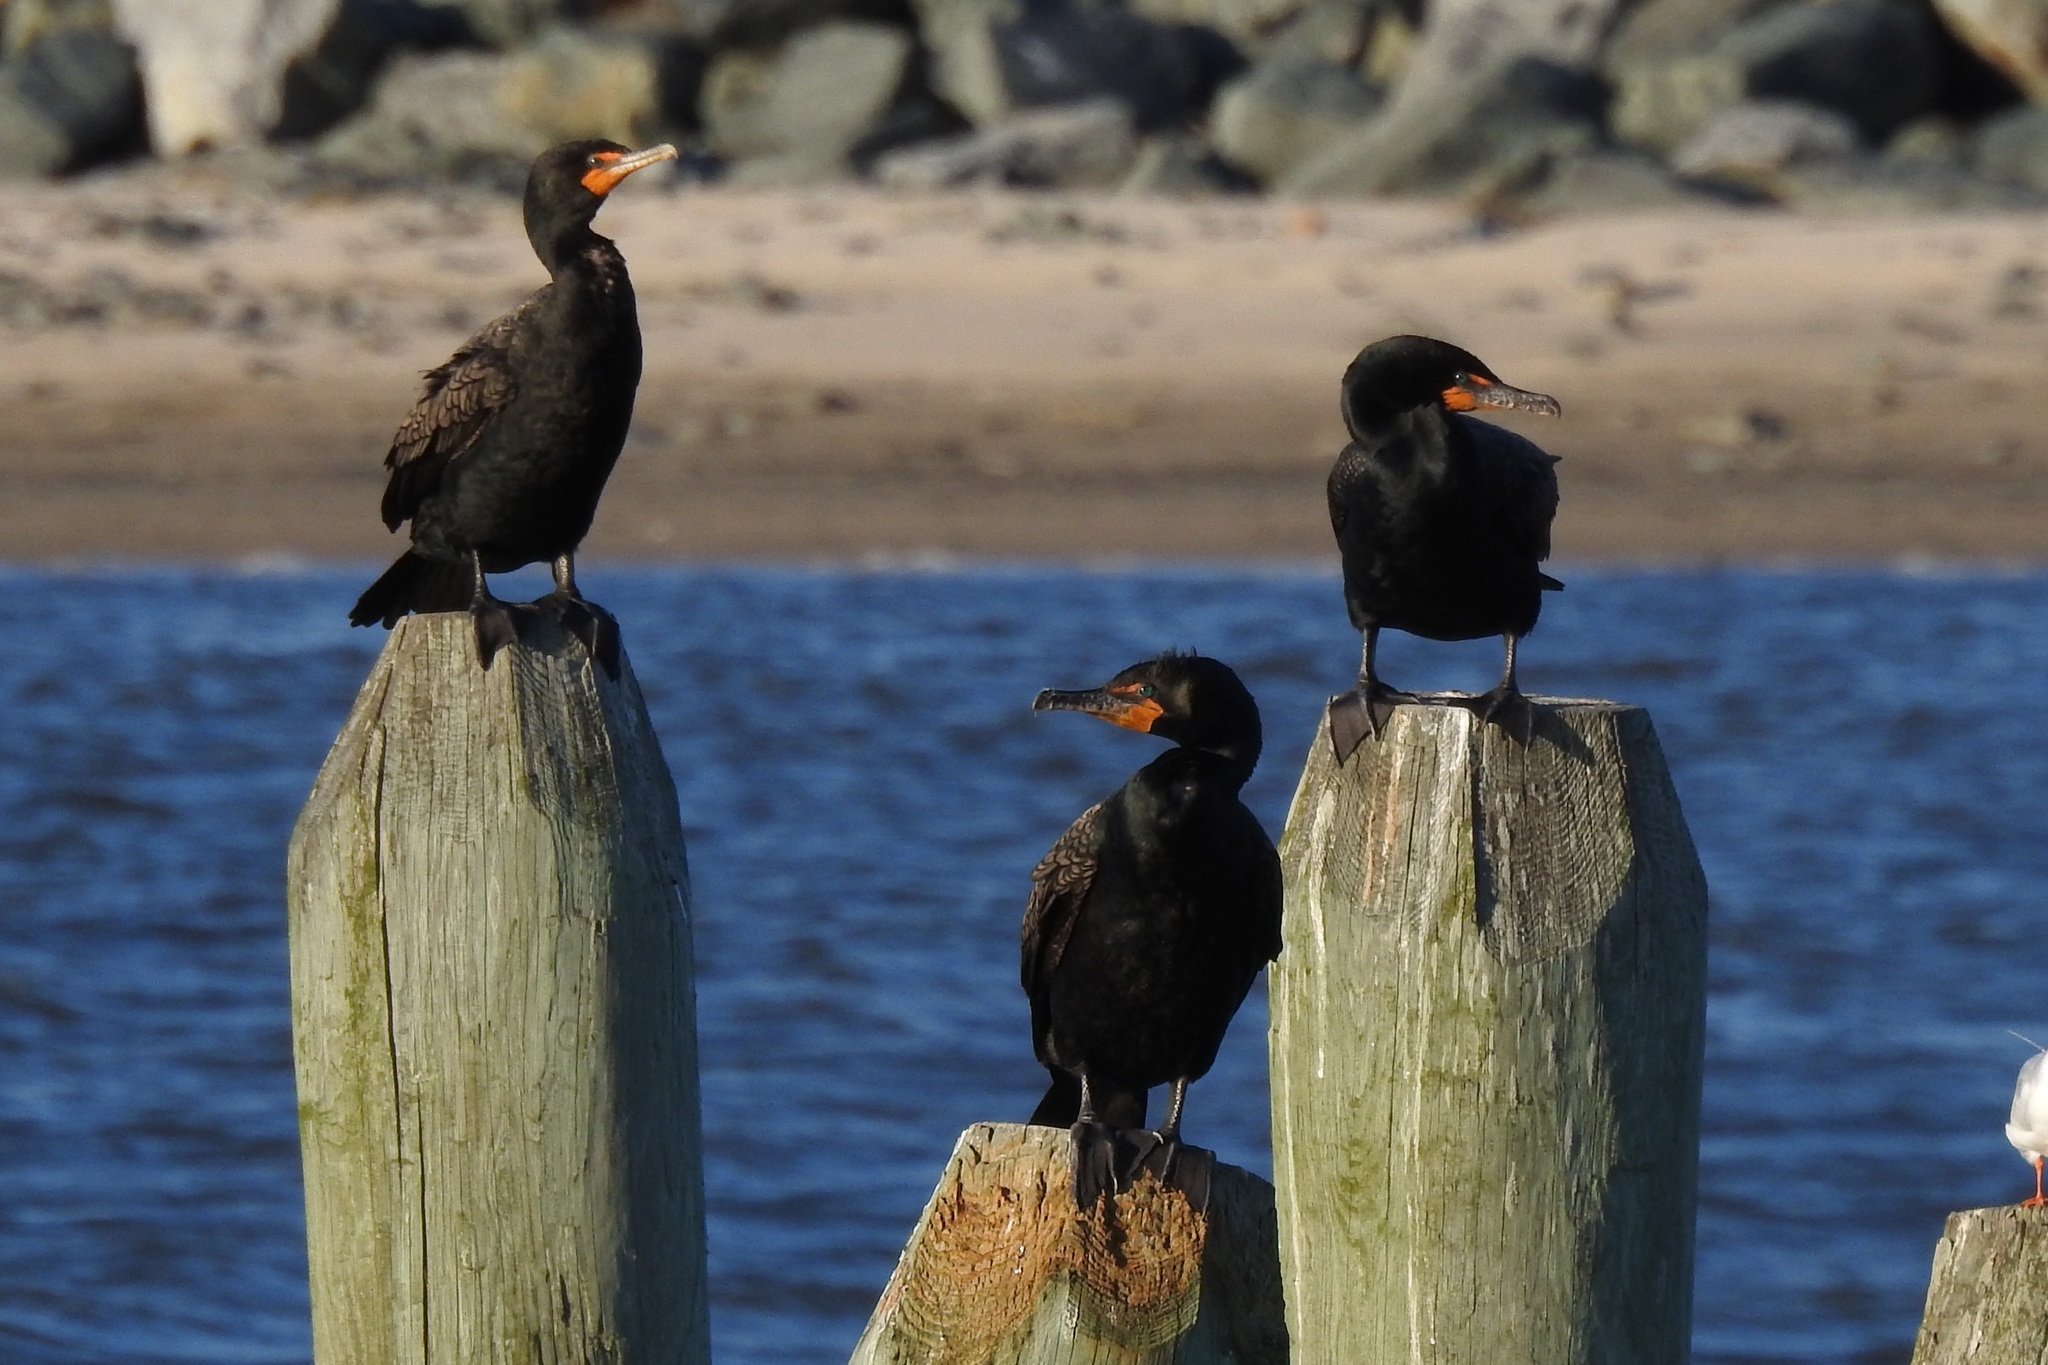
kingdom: Animalia
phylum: Chordata
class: Aves
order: Suliformes
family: Phalacrocoracidae
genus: Phalacrocorax
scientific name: Phalacrocorax auritus
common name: Double-crested cormorant
